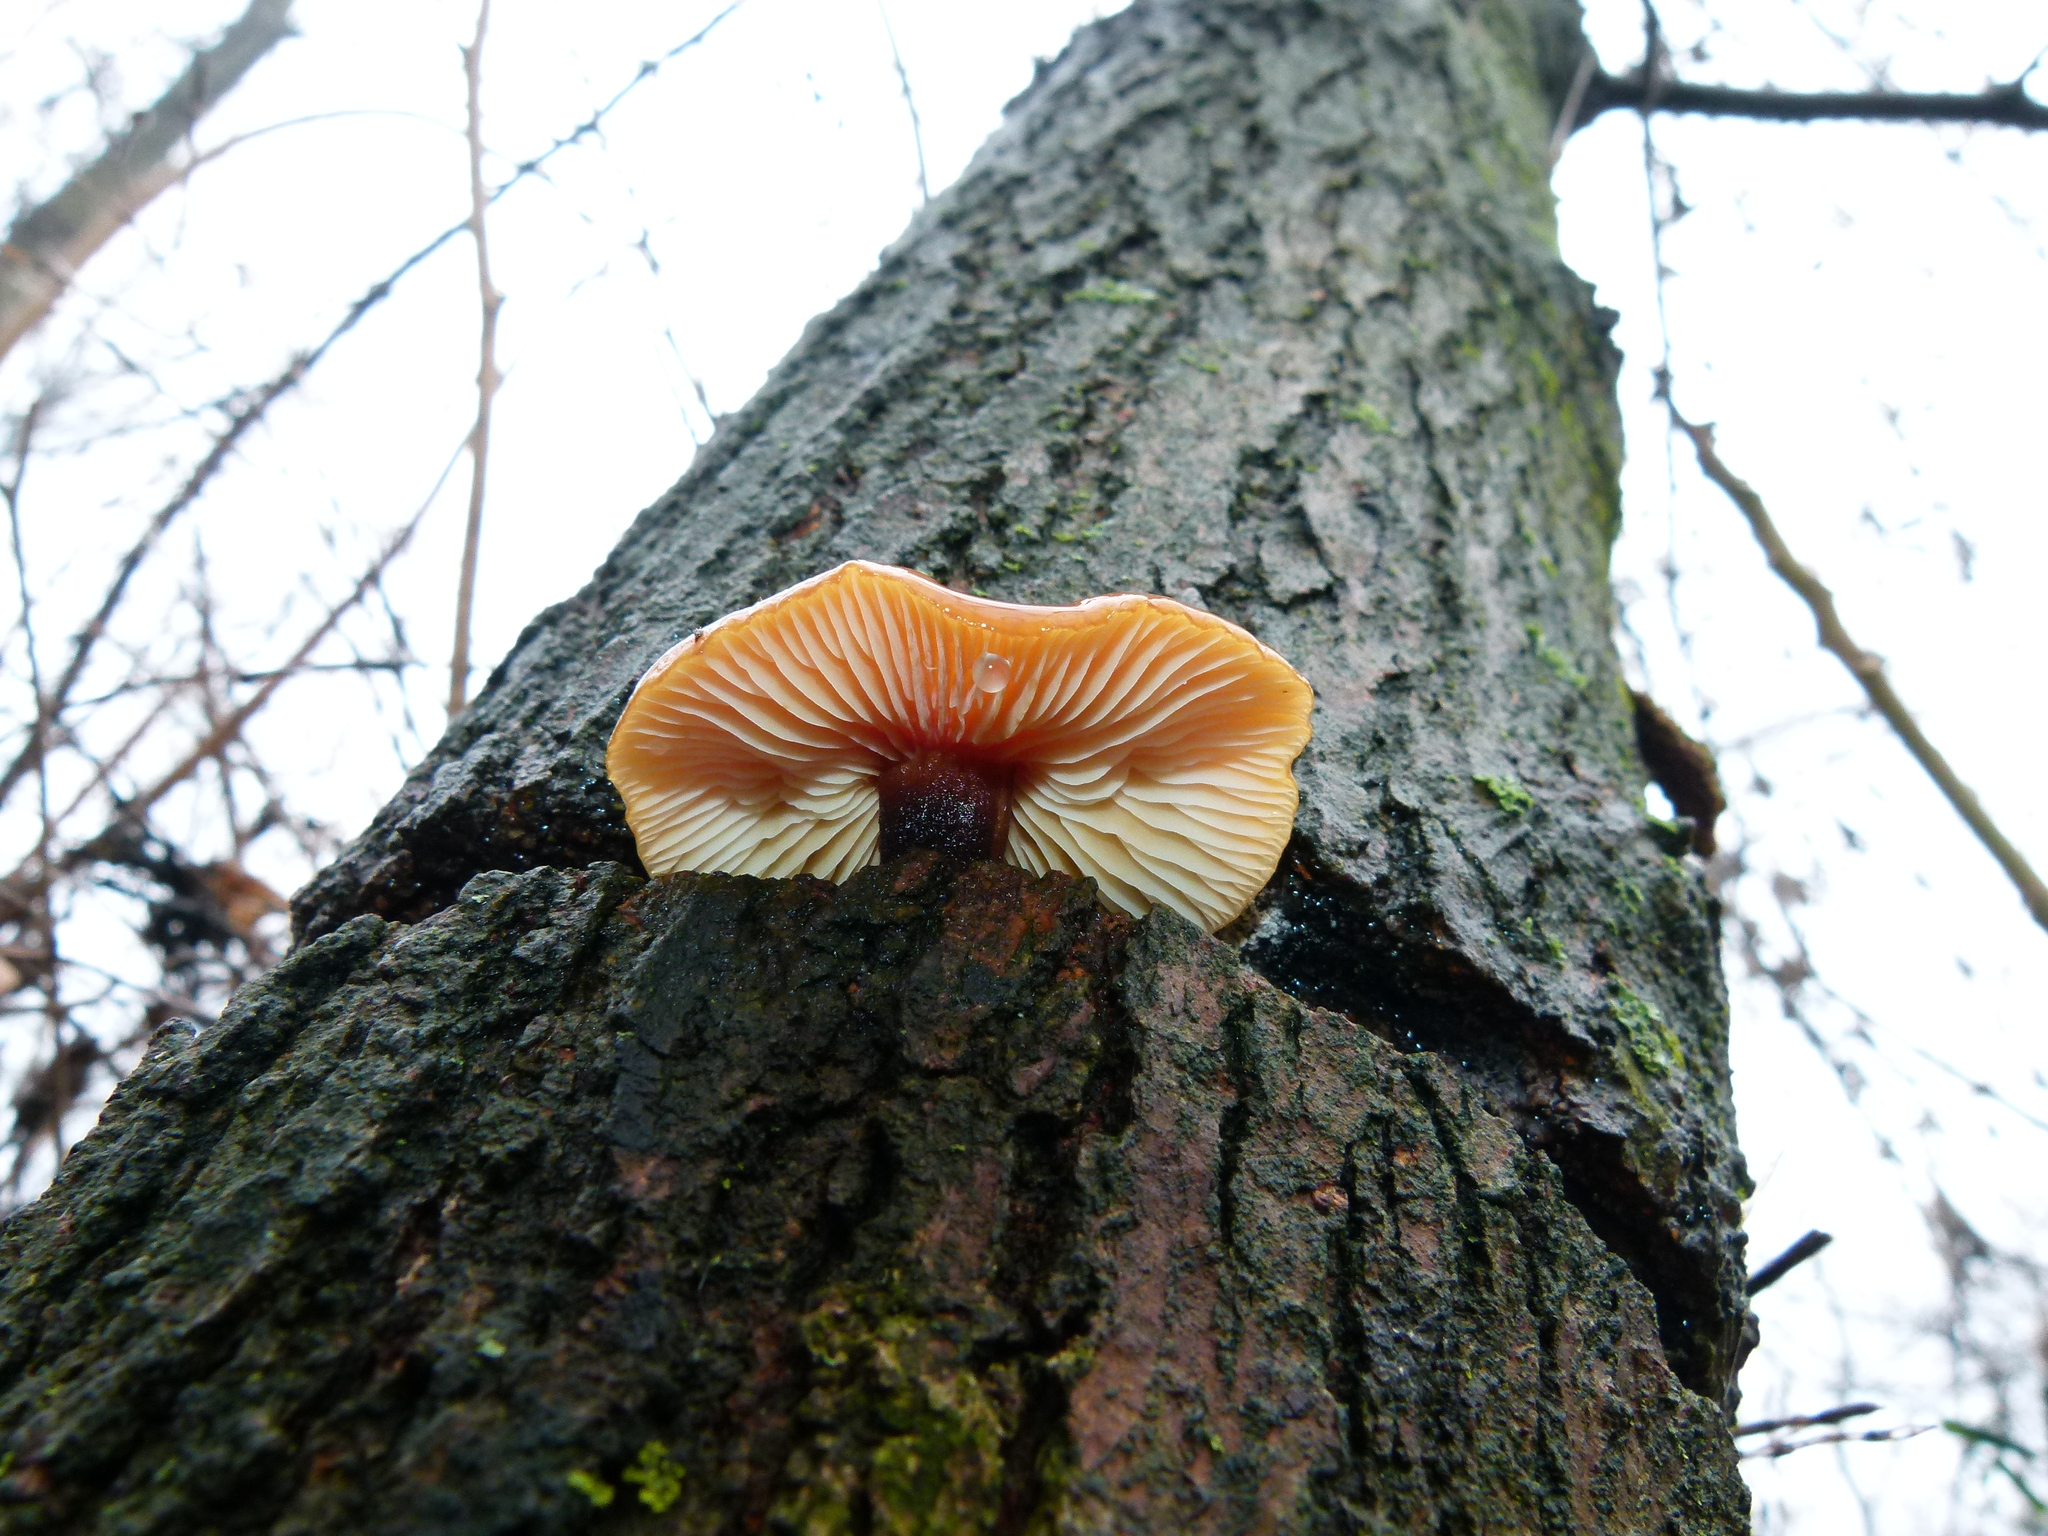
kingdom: Fungi
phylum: Basidiomycota
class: Agaricomycetes
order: Agaricales
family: Physalacriaceae
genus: Flammulina
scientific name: Flammulina velutipes
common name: Velvet shank
